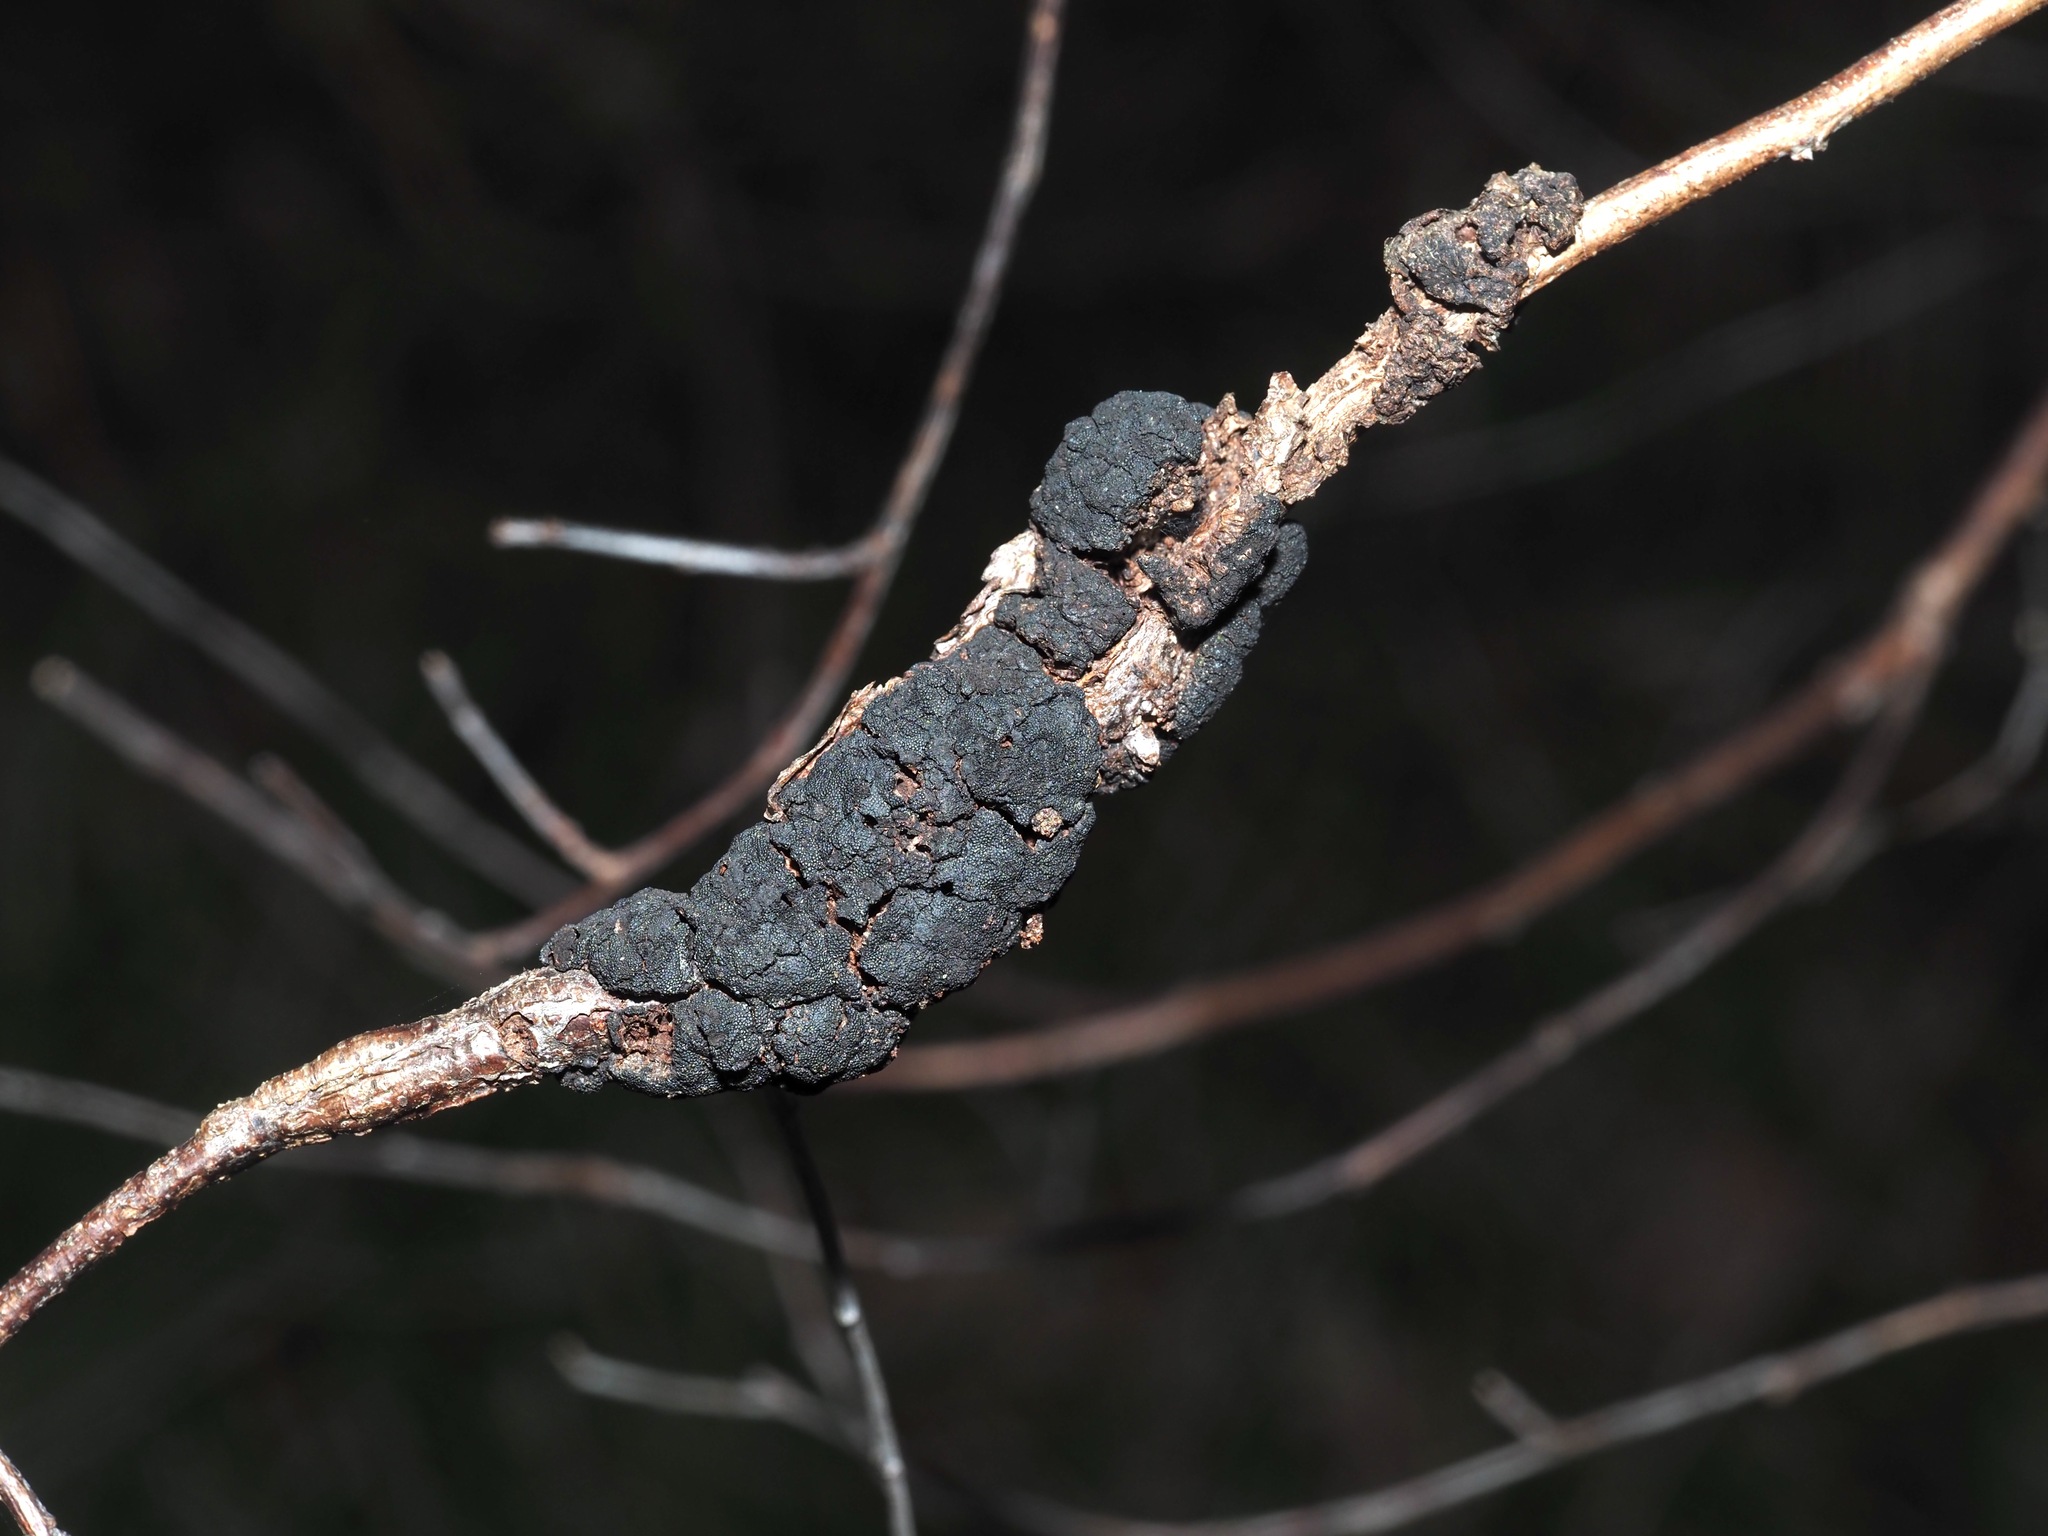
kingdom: Fungi
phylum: Ascomycota
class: Dothideomycetes
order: Venturiales
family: Venturiaceae
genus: Apiosporina
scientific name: Apiosporina morbosa
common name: Black knot
